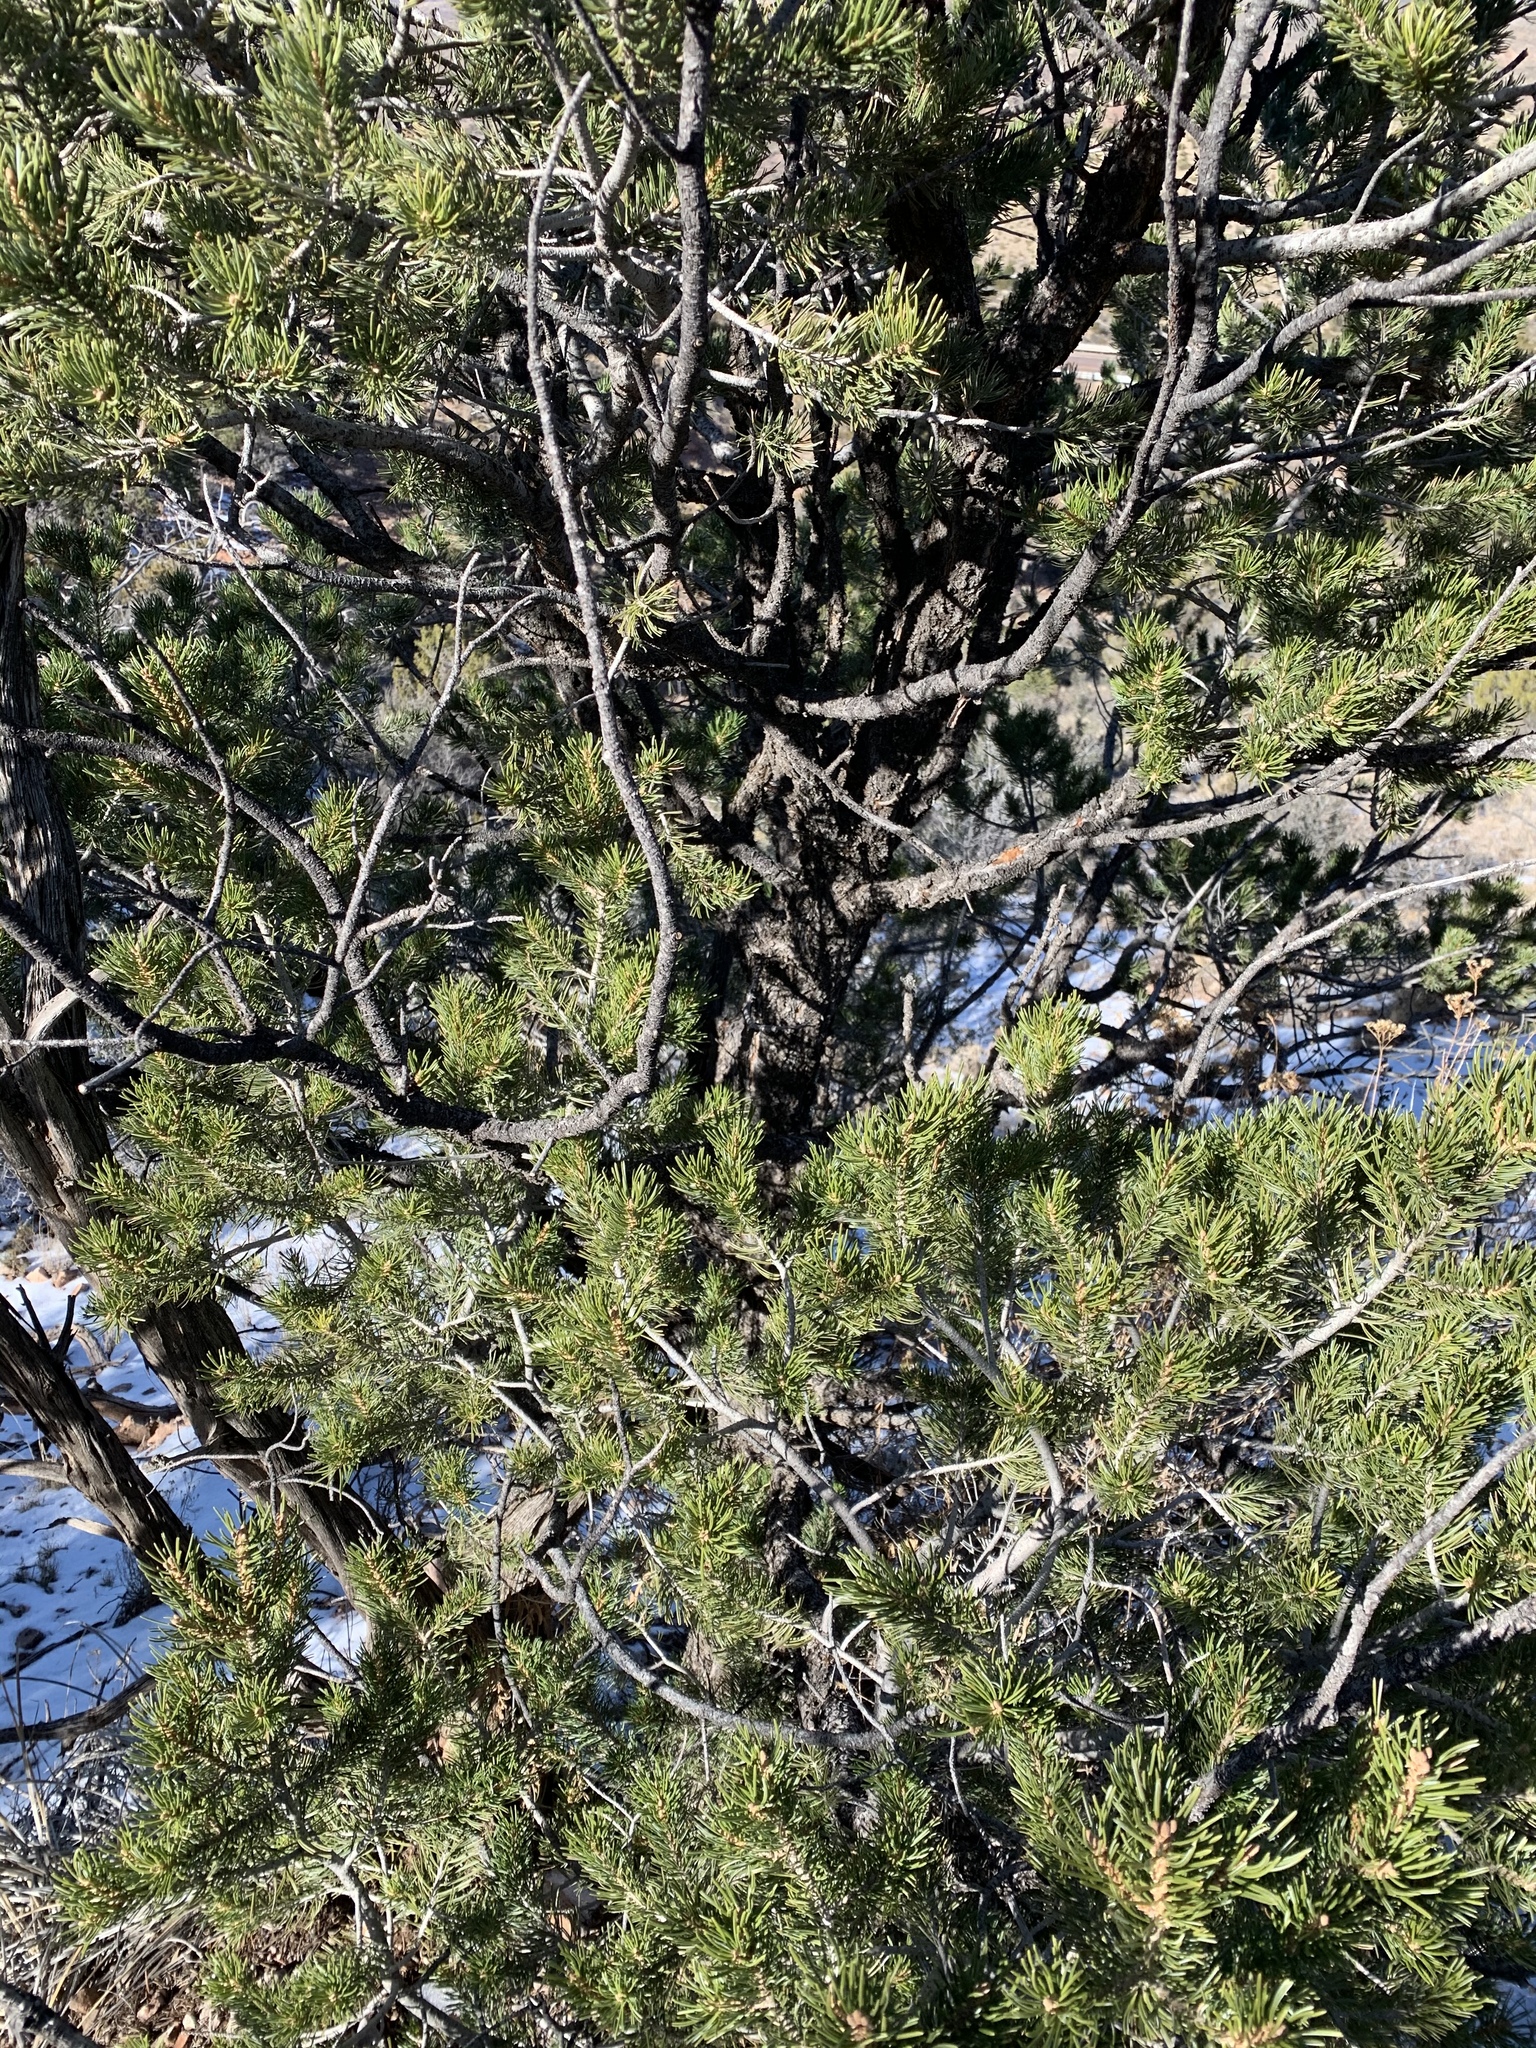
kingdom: Plantae
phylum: Tracheophyta
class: Pinopsida
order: Pinales
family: Pinaceae
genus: Pinus
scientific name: Pinus edulis
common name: Colorado pinyon
